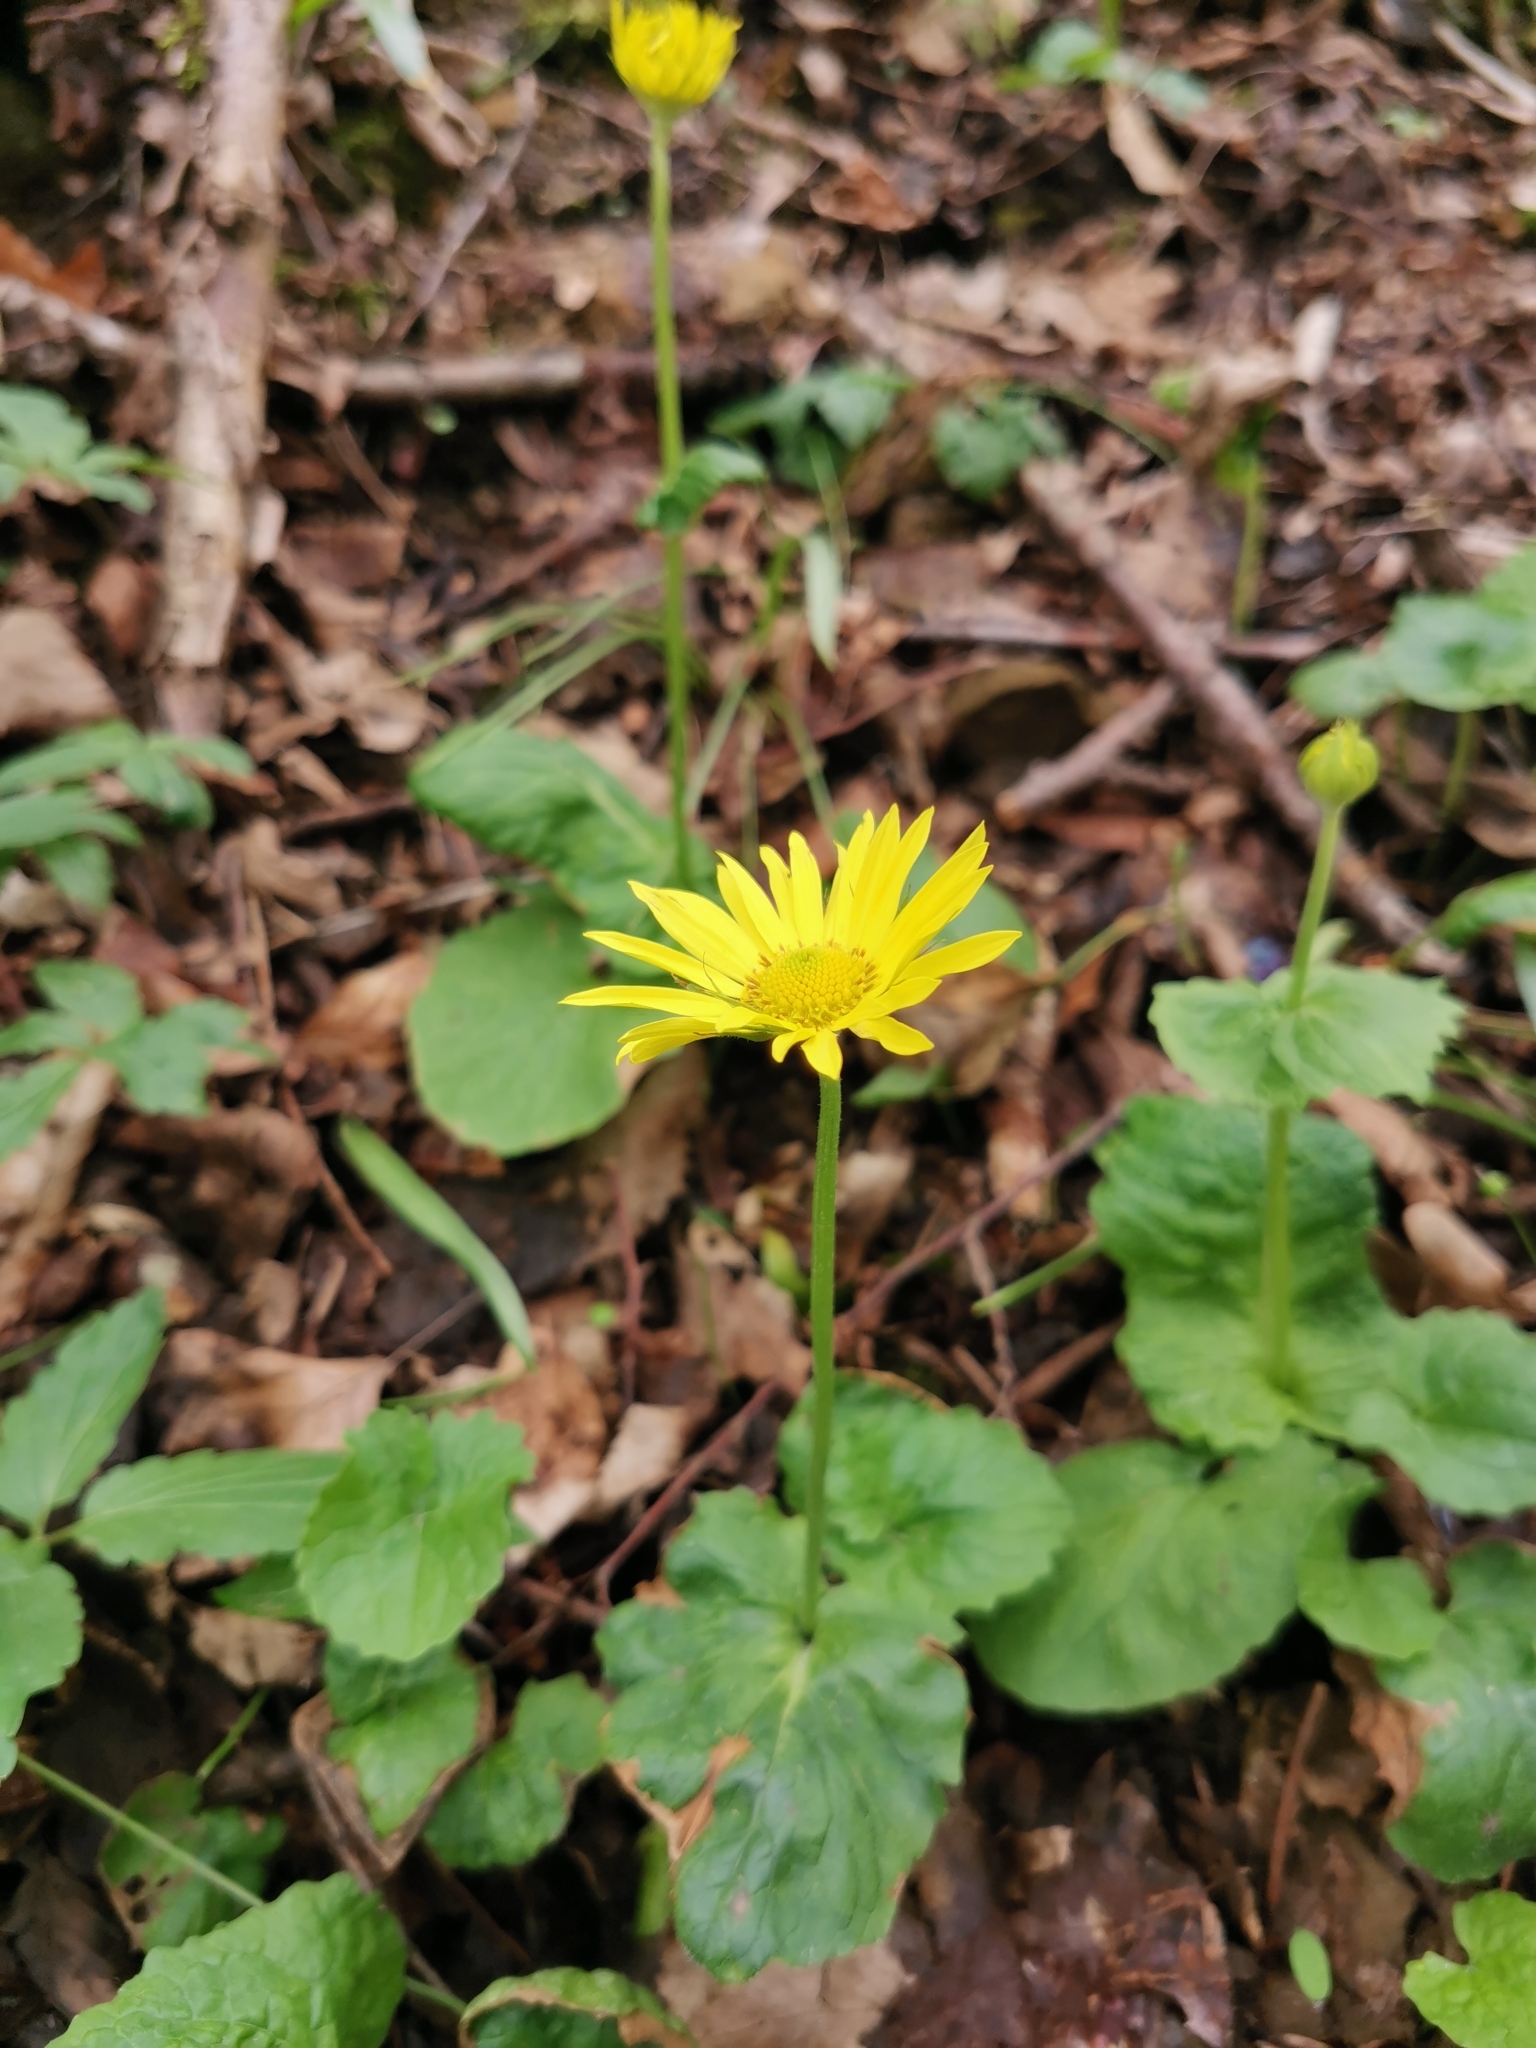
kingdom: Plantae
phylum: Tracheophyta
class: Magnoliopsida
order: Asterales
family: Asteraceae
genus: Doronicum
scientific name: Doronicum
